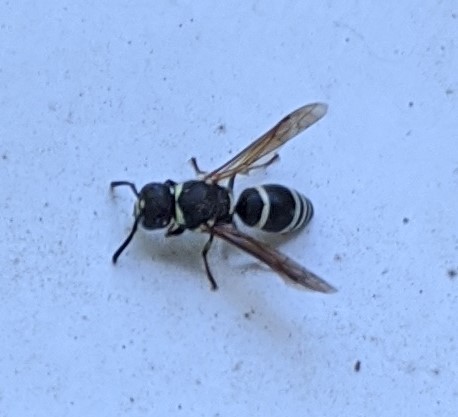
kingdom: Animalia
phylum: Arthropoda
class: Insecta
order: Hymenoptera
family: Eumenidae
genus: Euodynerus
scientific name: Euodynerus leucomelas
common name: Wasp
